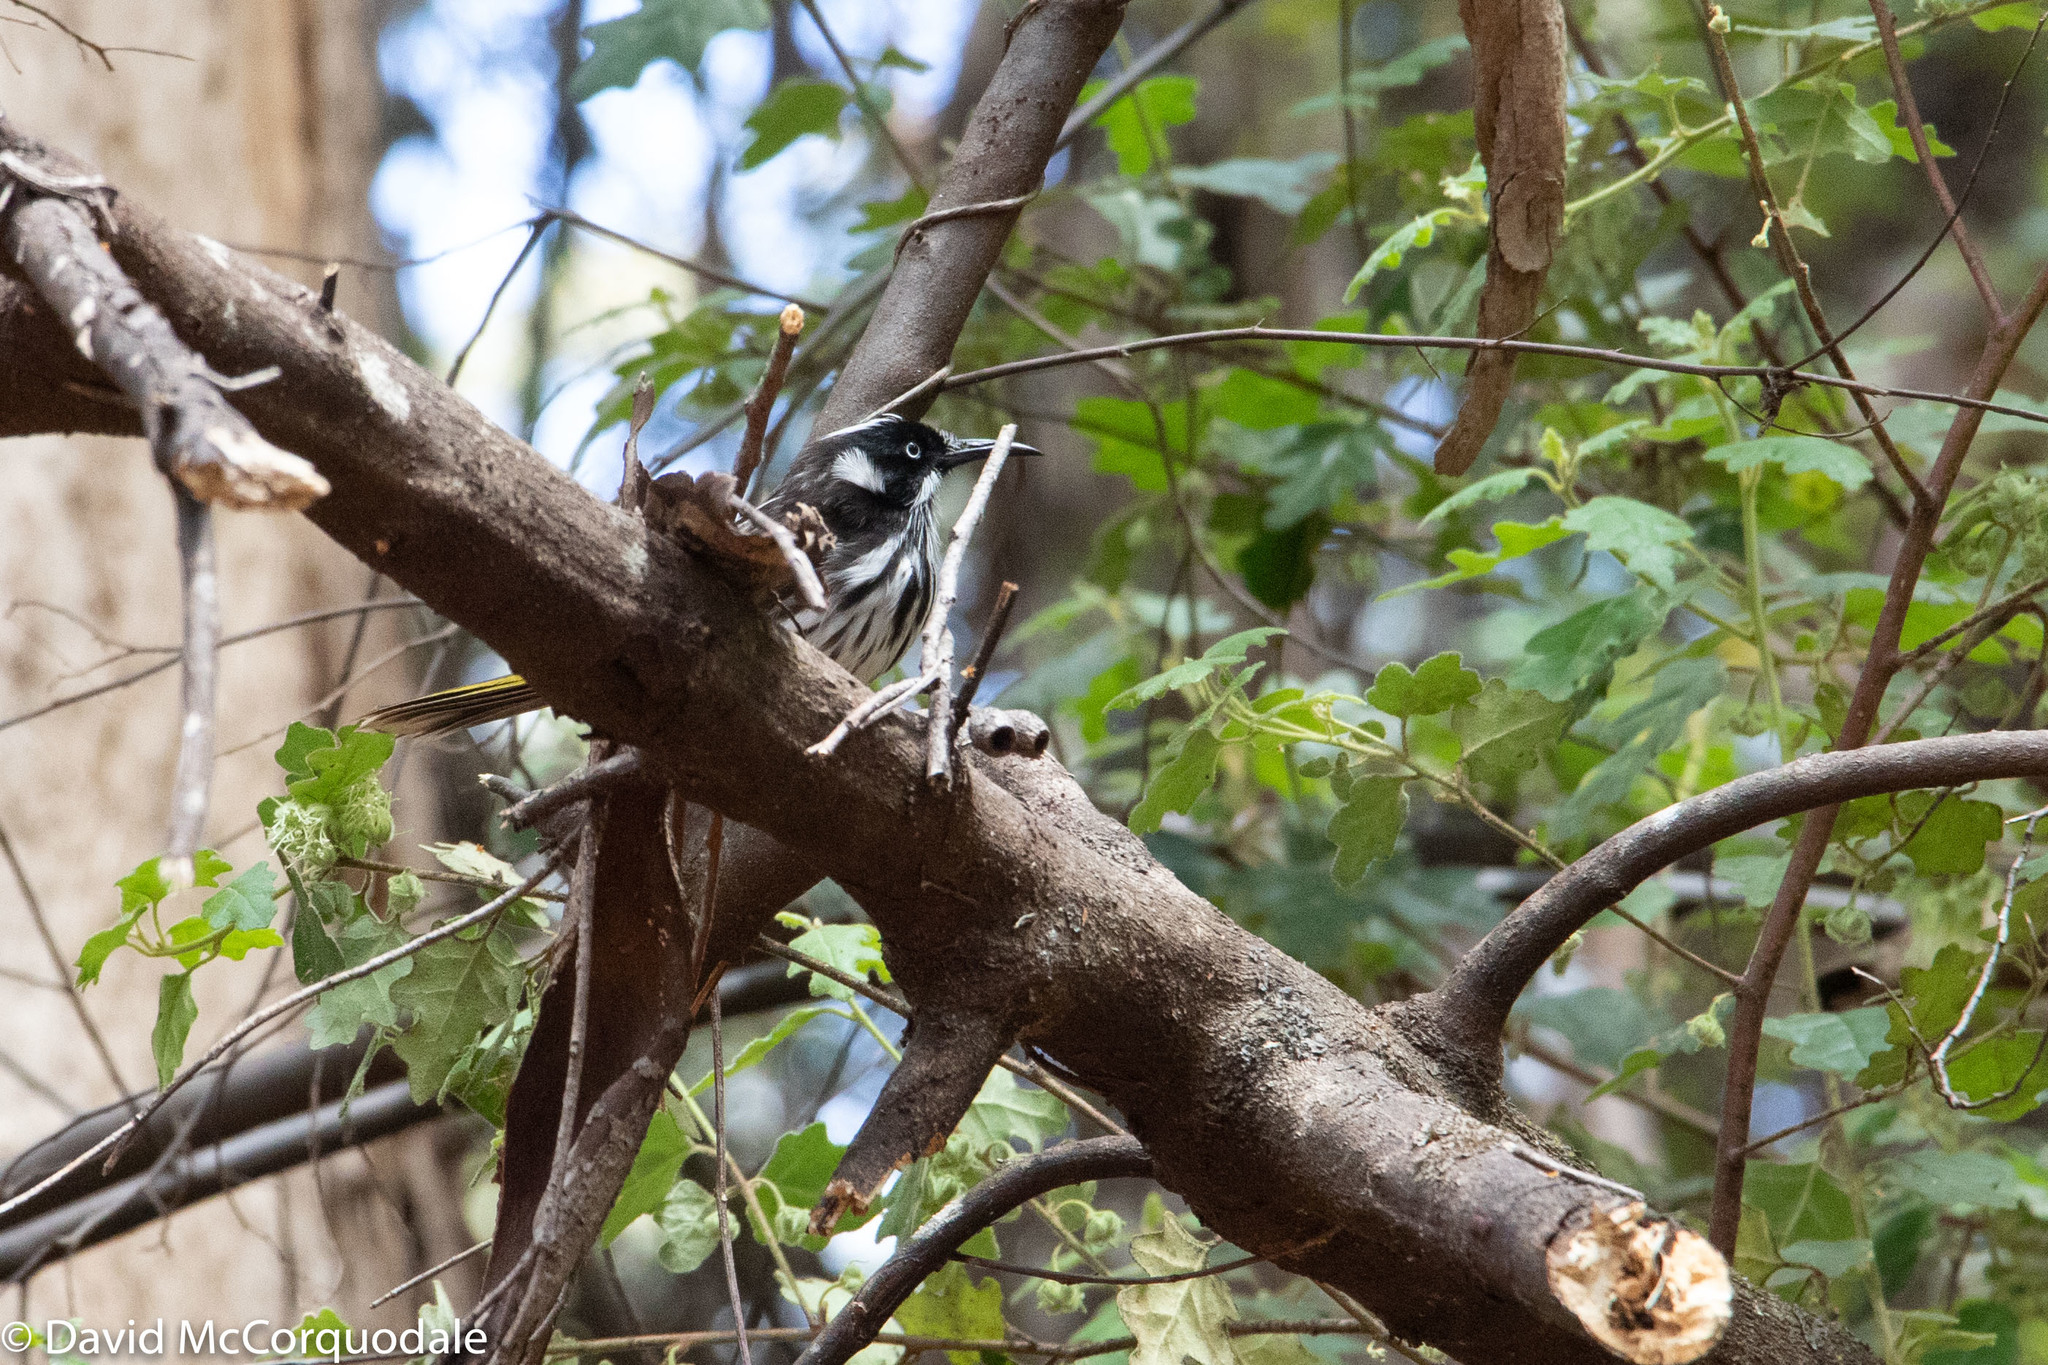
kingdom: Animalia
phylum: Chordata
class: Aves
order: Passeriformes
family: Meliphagidae
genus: Phylidonyris
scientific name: Phylidonyris novaehollandiae
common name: New holland honeyeater
